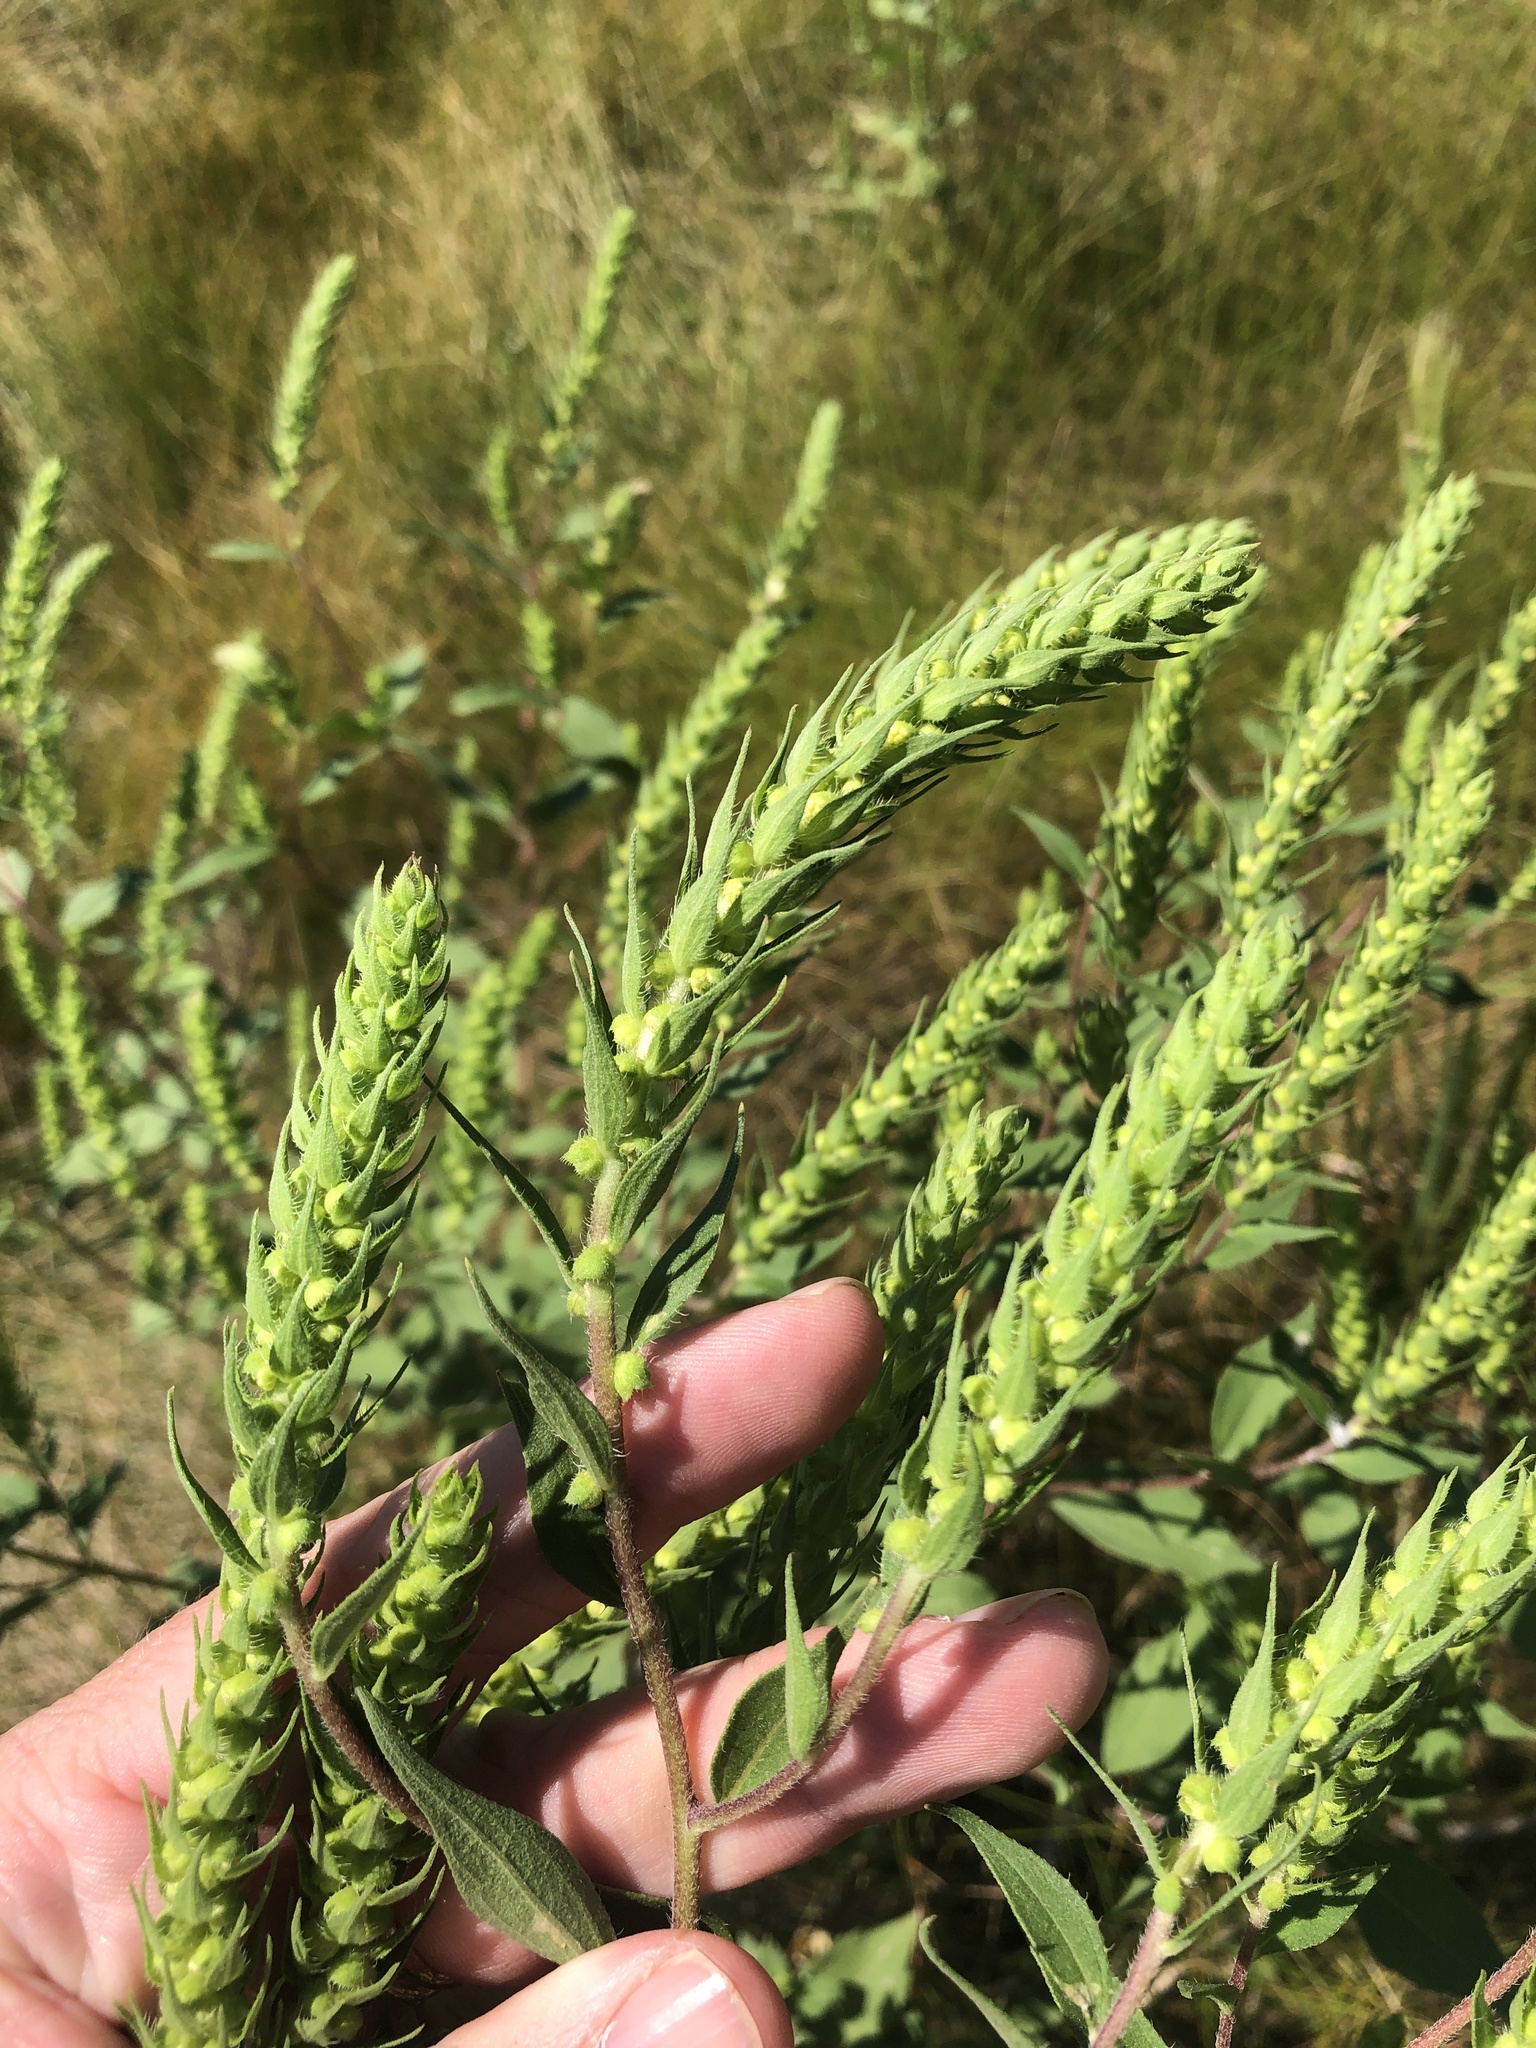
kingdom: Plantae
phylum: Tracheophyta
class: Magnoliopsida
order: Asterales
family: Asteraceae
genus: Iva
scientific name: Iva annua
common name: Marsh-elder
